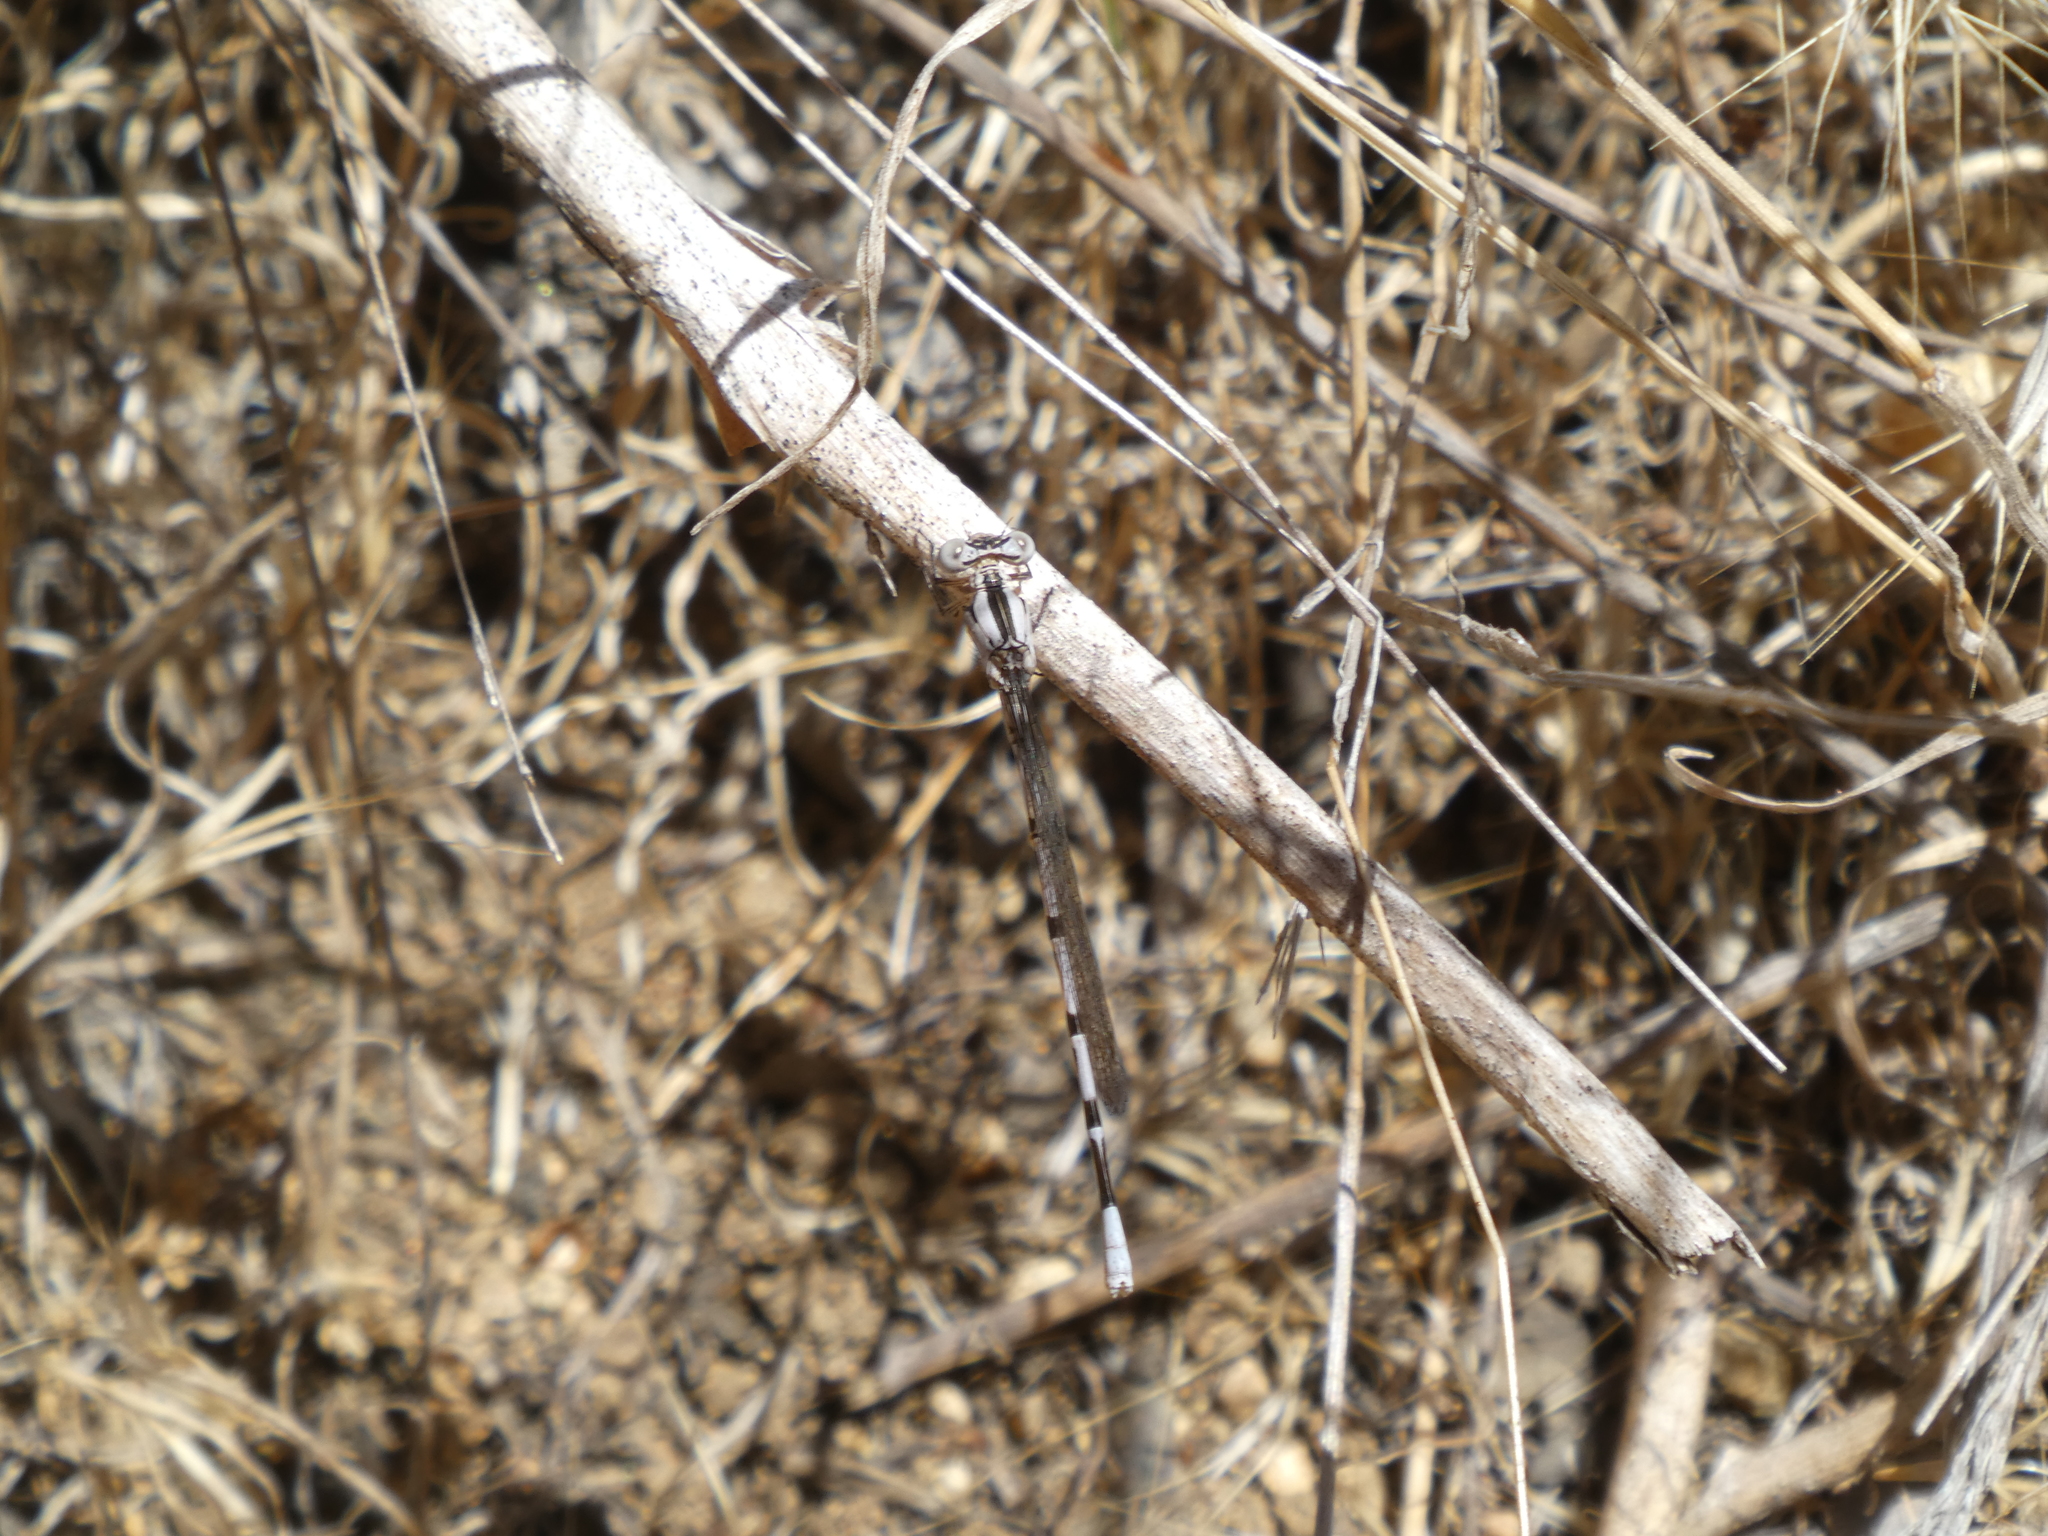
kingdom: Animalia
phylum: Arthropoda
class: Insecta
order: Odonata
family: Coenagrionidae
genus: Argia
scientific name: Argia vivida
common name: Vivid dancer
